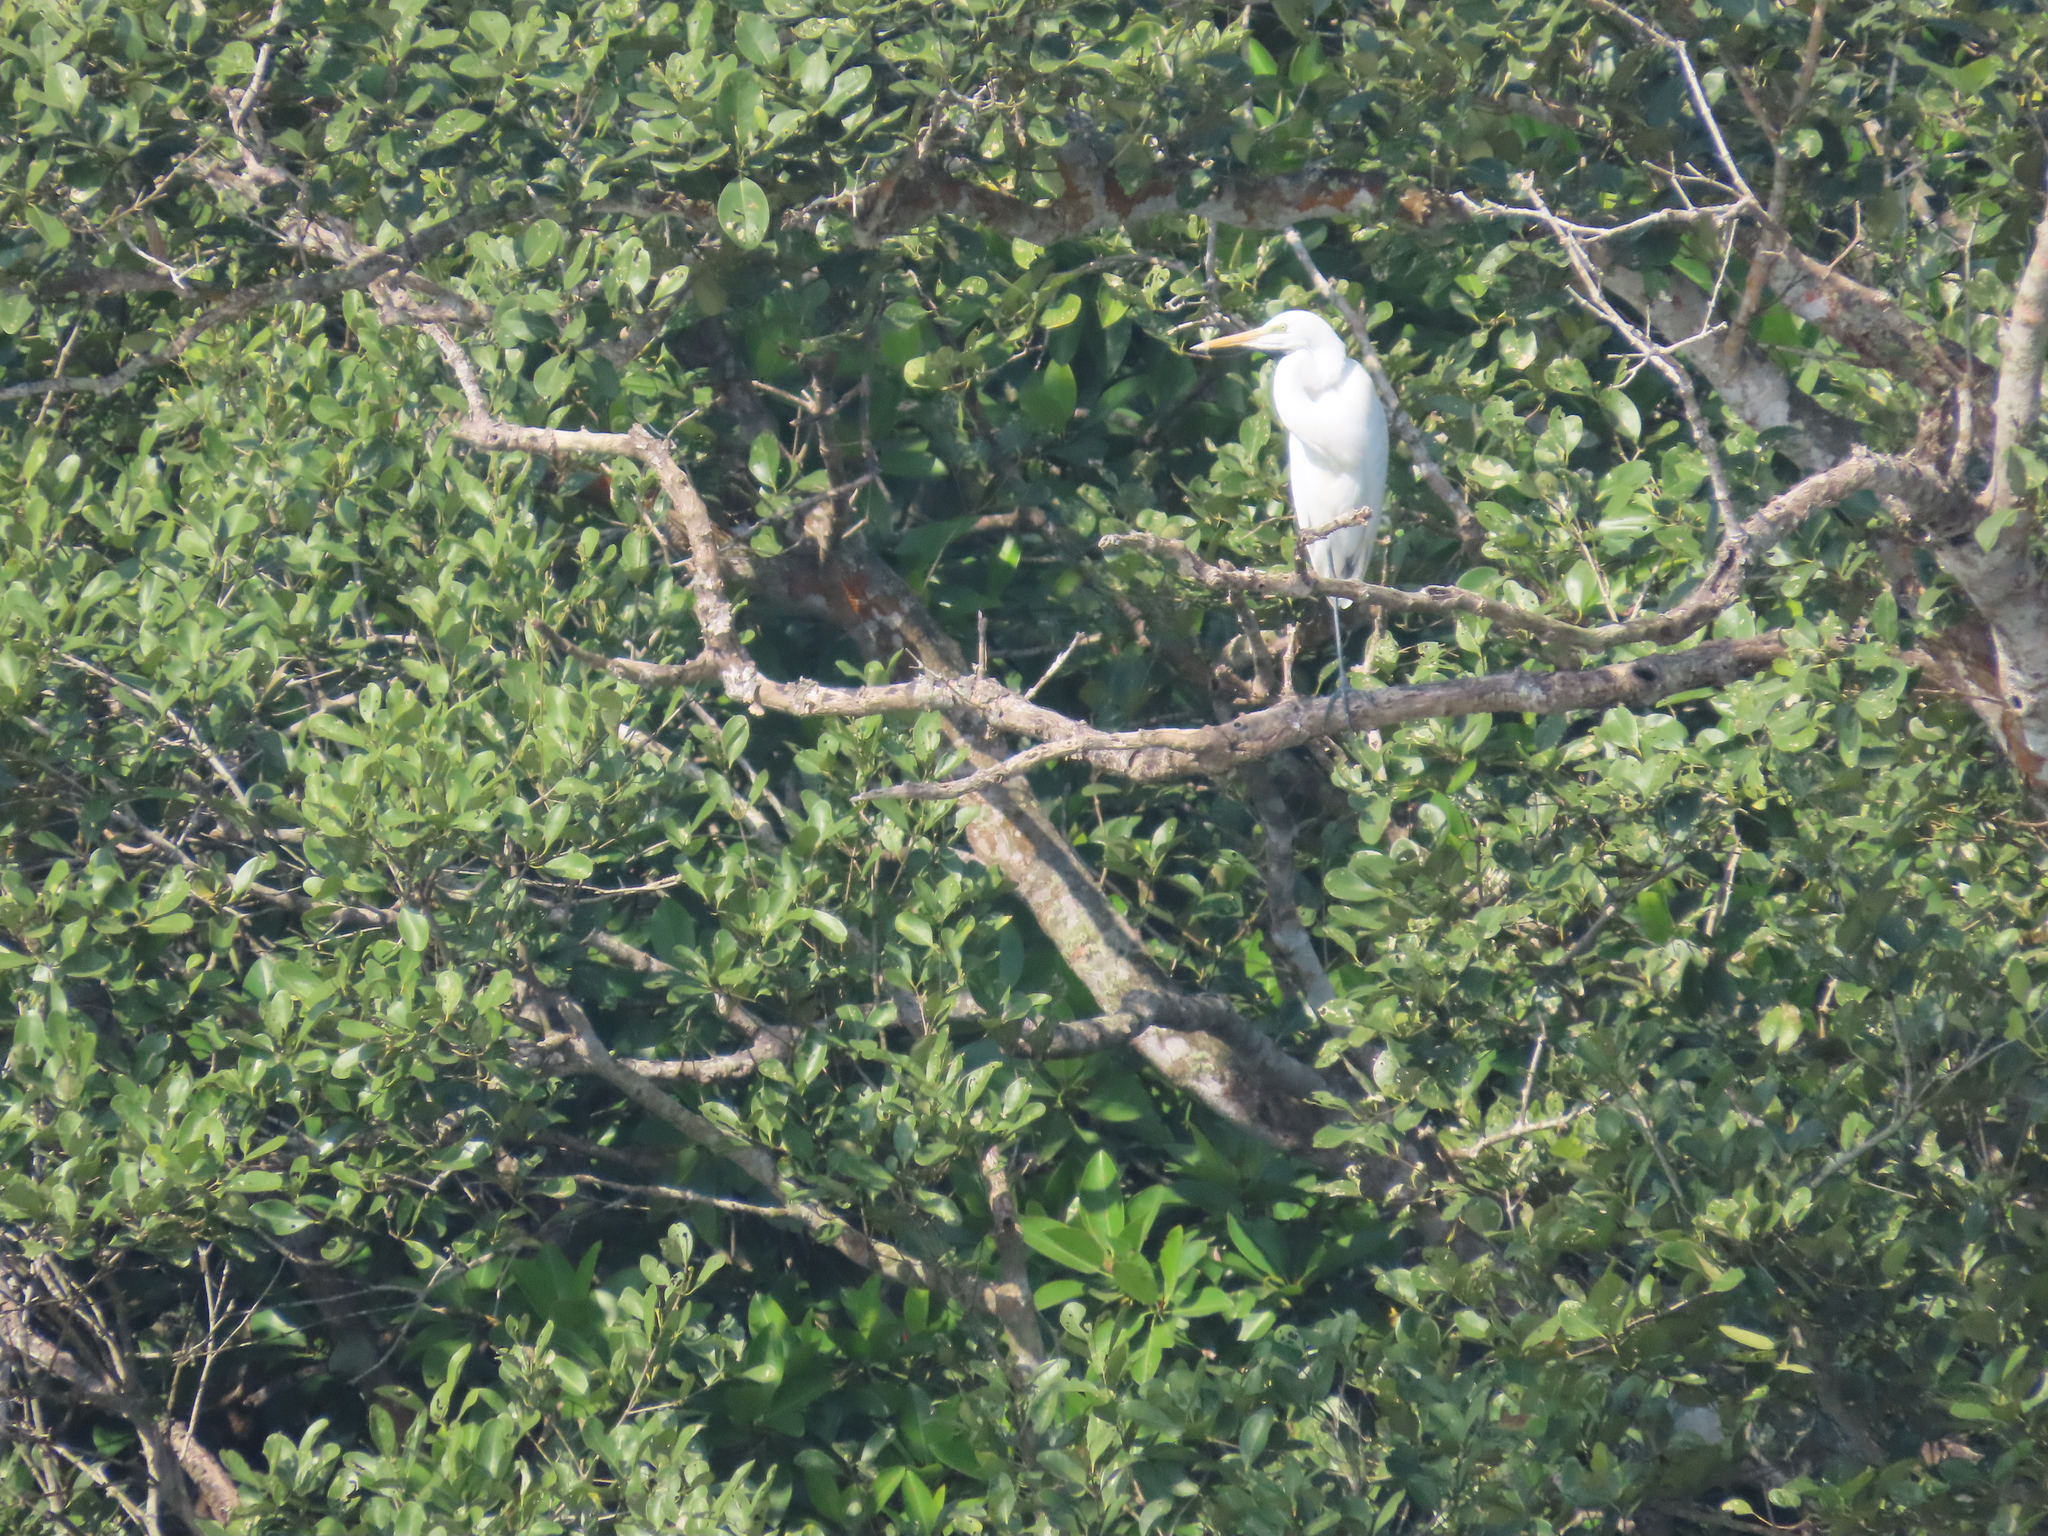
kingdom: Animalia
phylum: Chordata
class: Aves
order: Pelecaniformes
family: Ardeidae
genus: Egretta
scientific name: Egretta intermedia
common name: Intermediate egret
